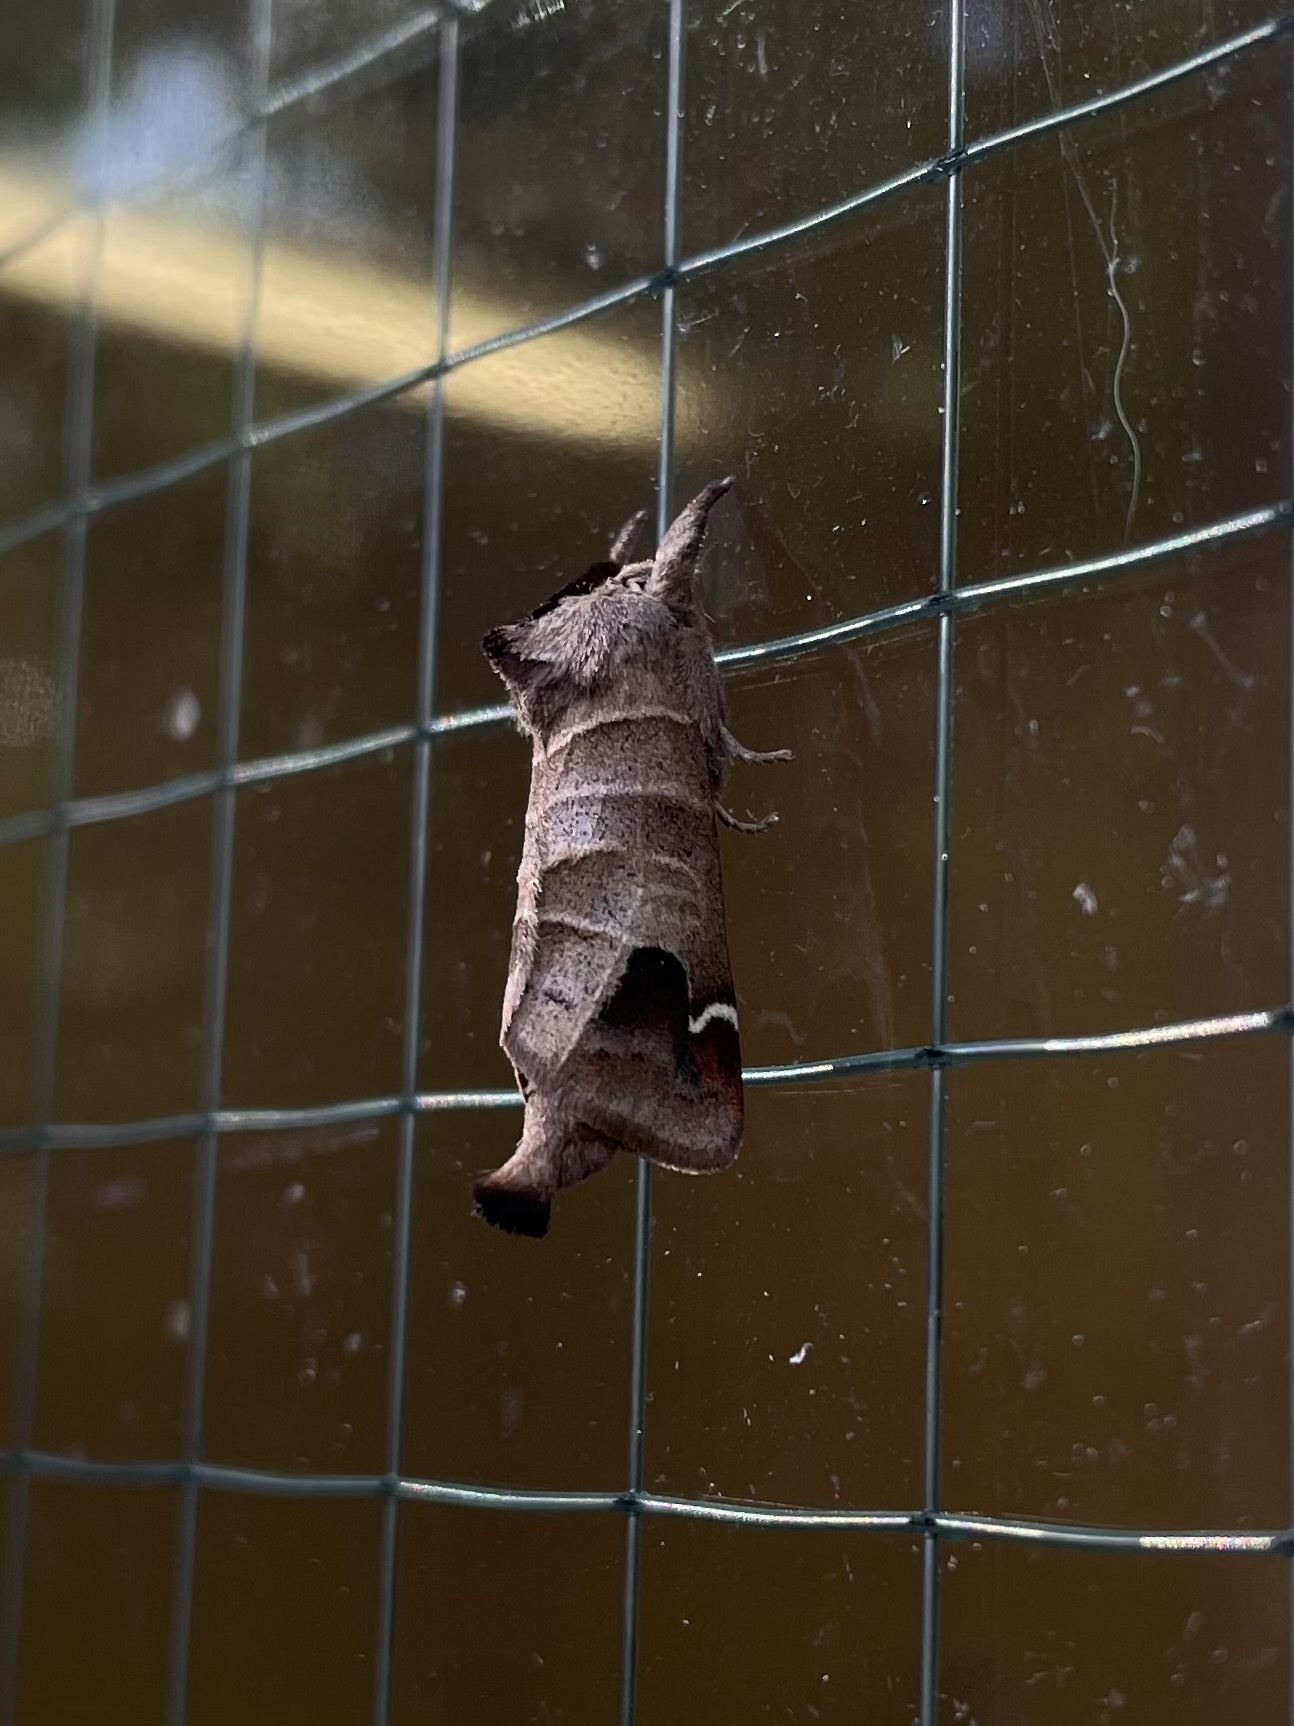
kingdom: Animalia
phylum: Arthropoda
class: Insecta
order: Lepidoptera
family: Notodontidae
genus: Clostera
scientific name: Clostera albosigma
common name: Sigmoid prominent
